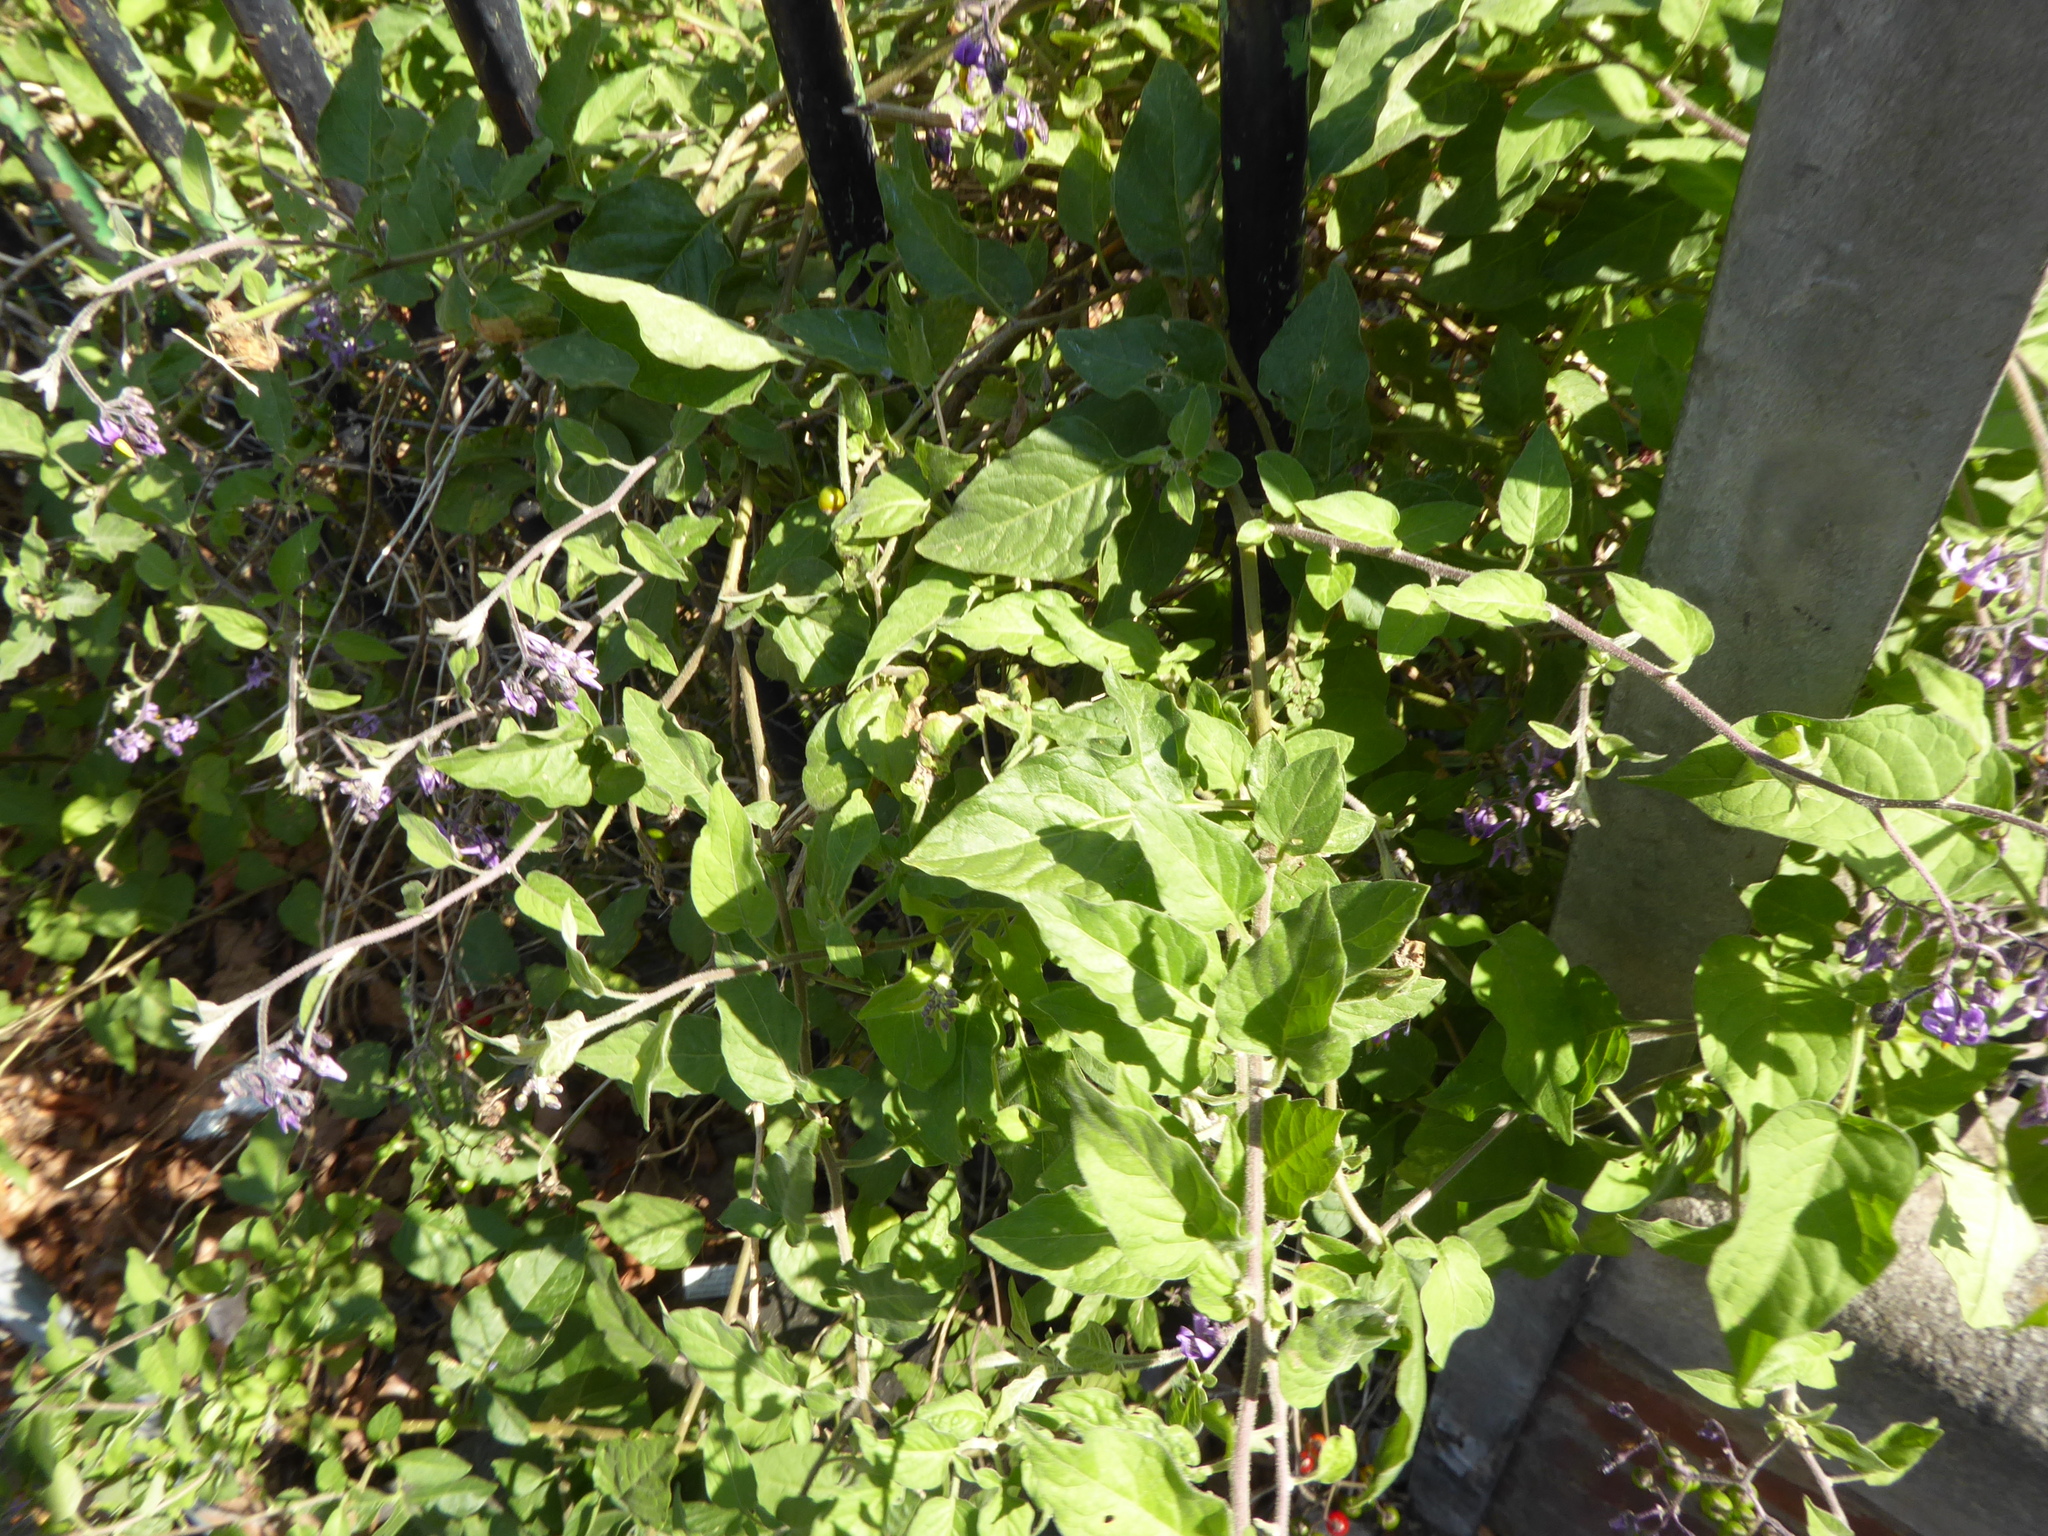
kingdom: Plantae
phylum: Tracheophyta
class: Magnoliopsida
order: Solanales
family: Solanaceae
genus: Solanum
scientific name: Solanum dulcamara
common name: Climbing nightshade
